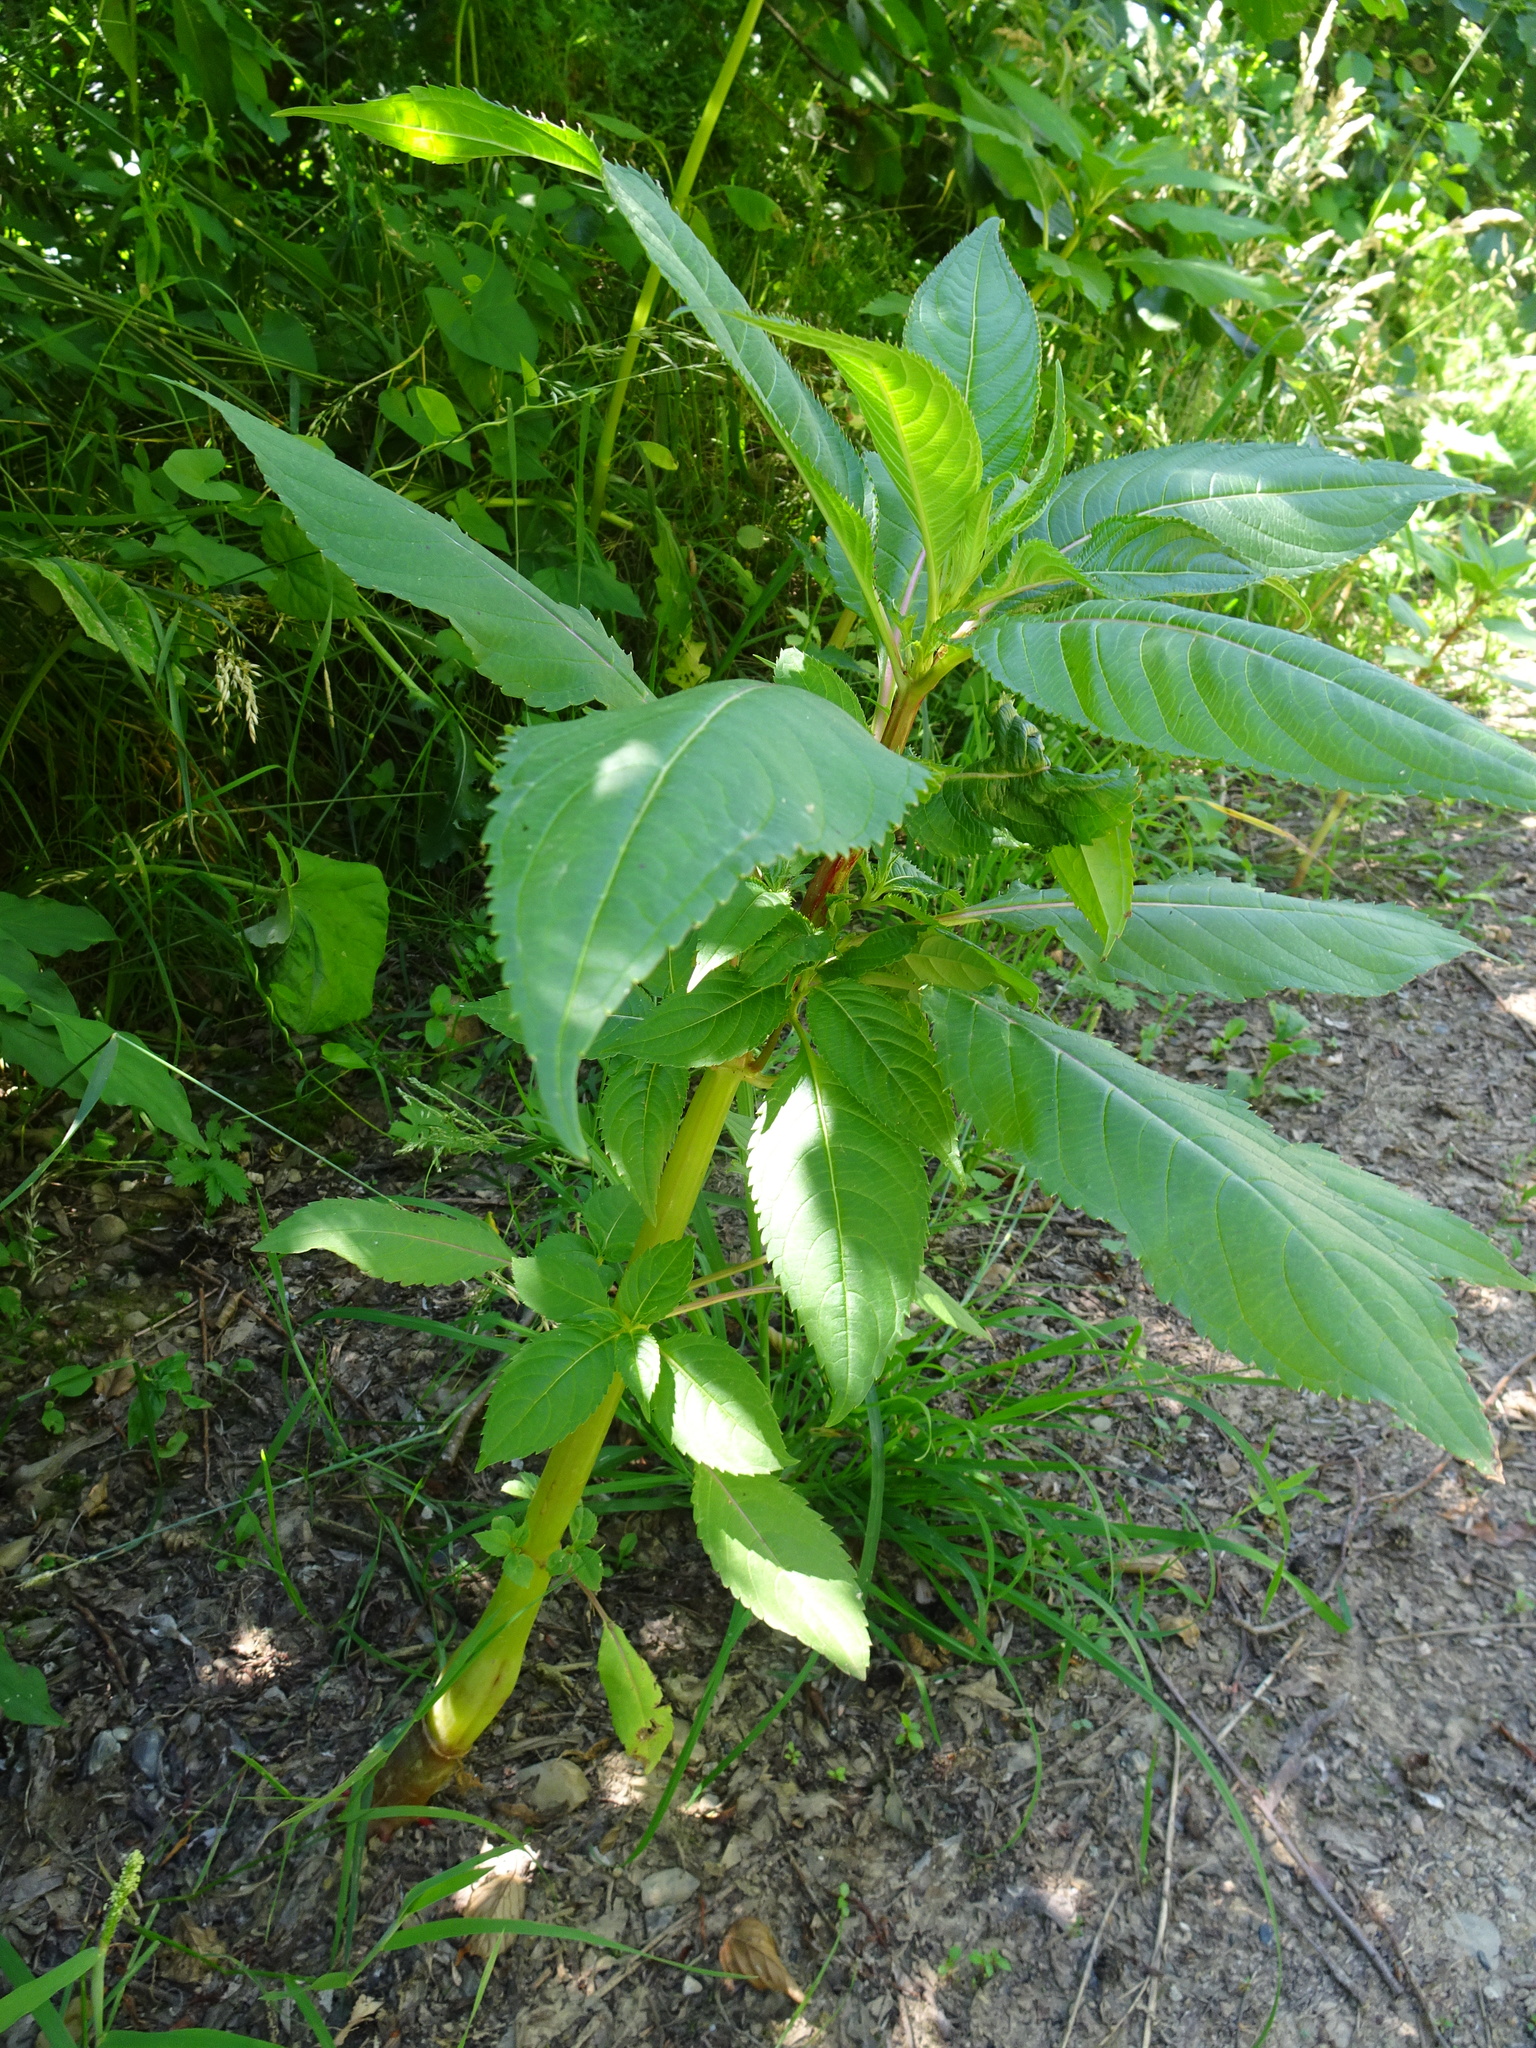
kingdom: Plantae
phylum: Tracheophyta
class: Magnoliopsida
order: Ericales
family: Balsaminaceae
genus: Impatiens
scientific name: Impatiens glandulifera
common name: Himalayan balsam
